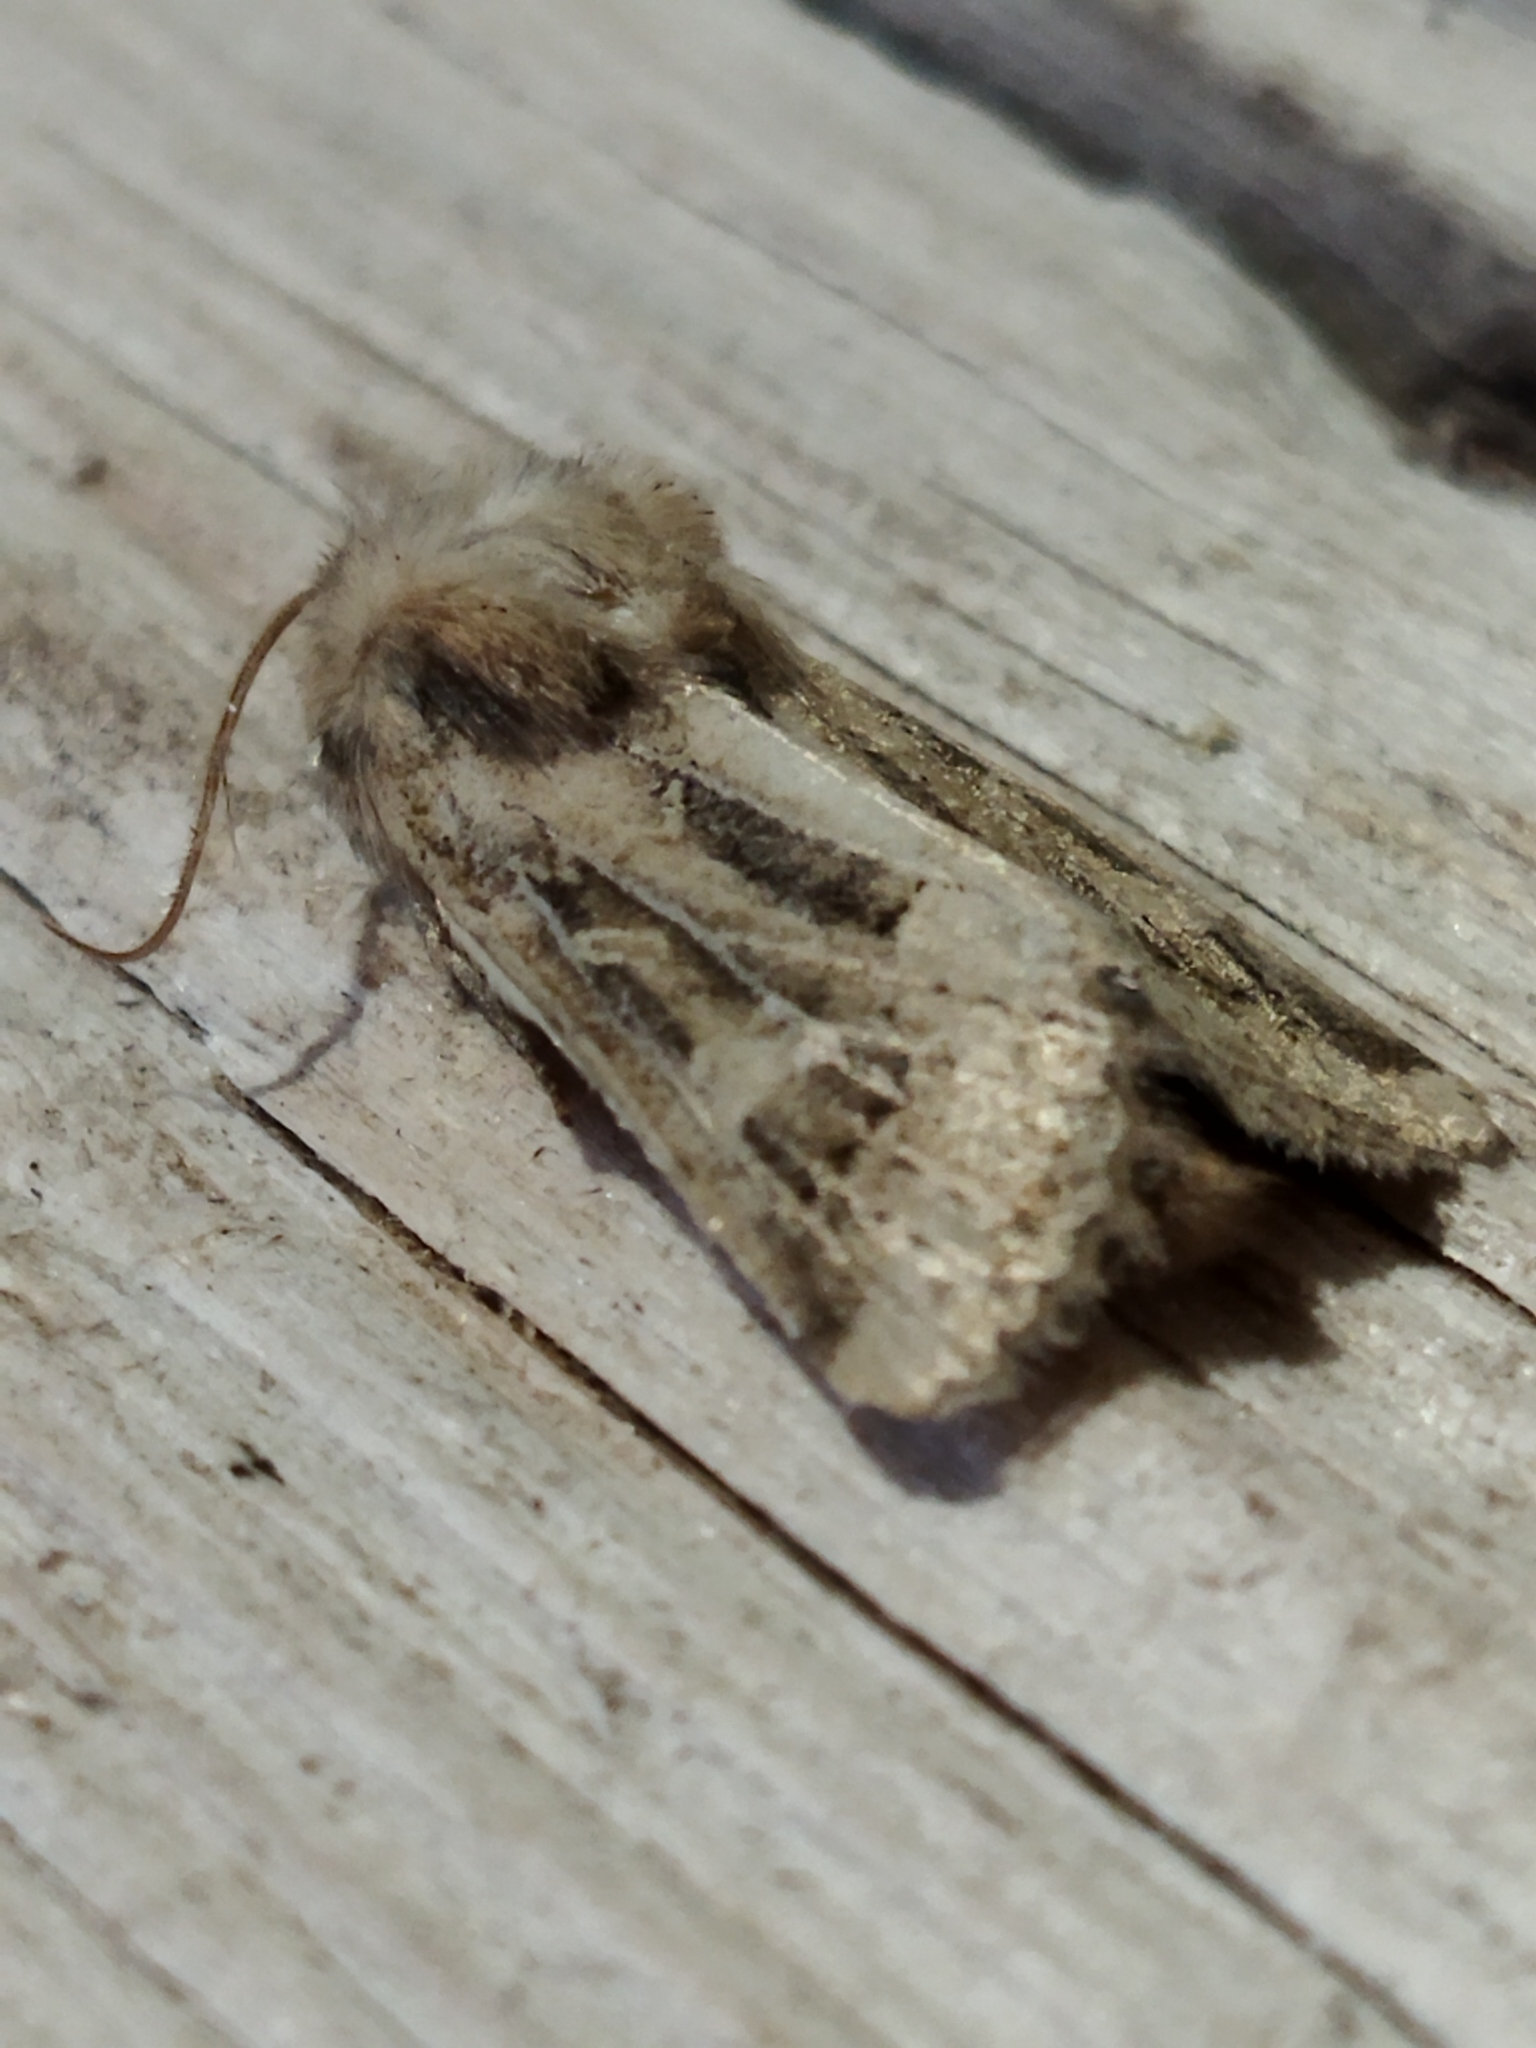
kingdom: Animalia
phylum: Arthropoda
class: Insecta
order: Lepidoptera
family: Noctuidae
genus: Luperina
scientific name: Luperina dumerilii
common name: Dumeril's rustic
